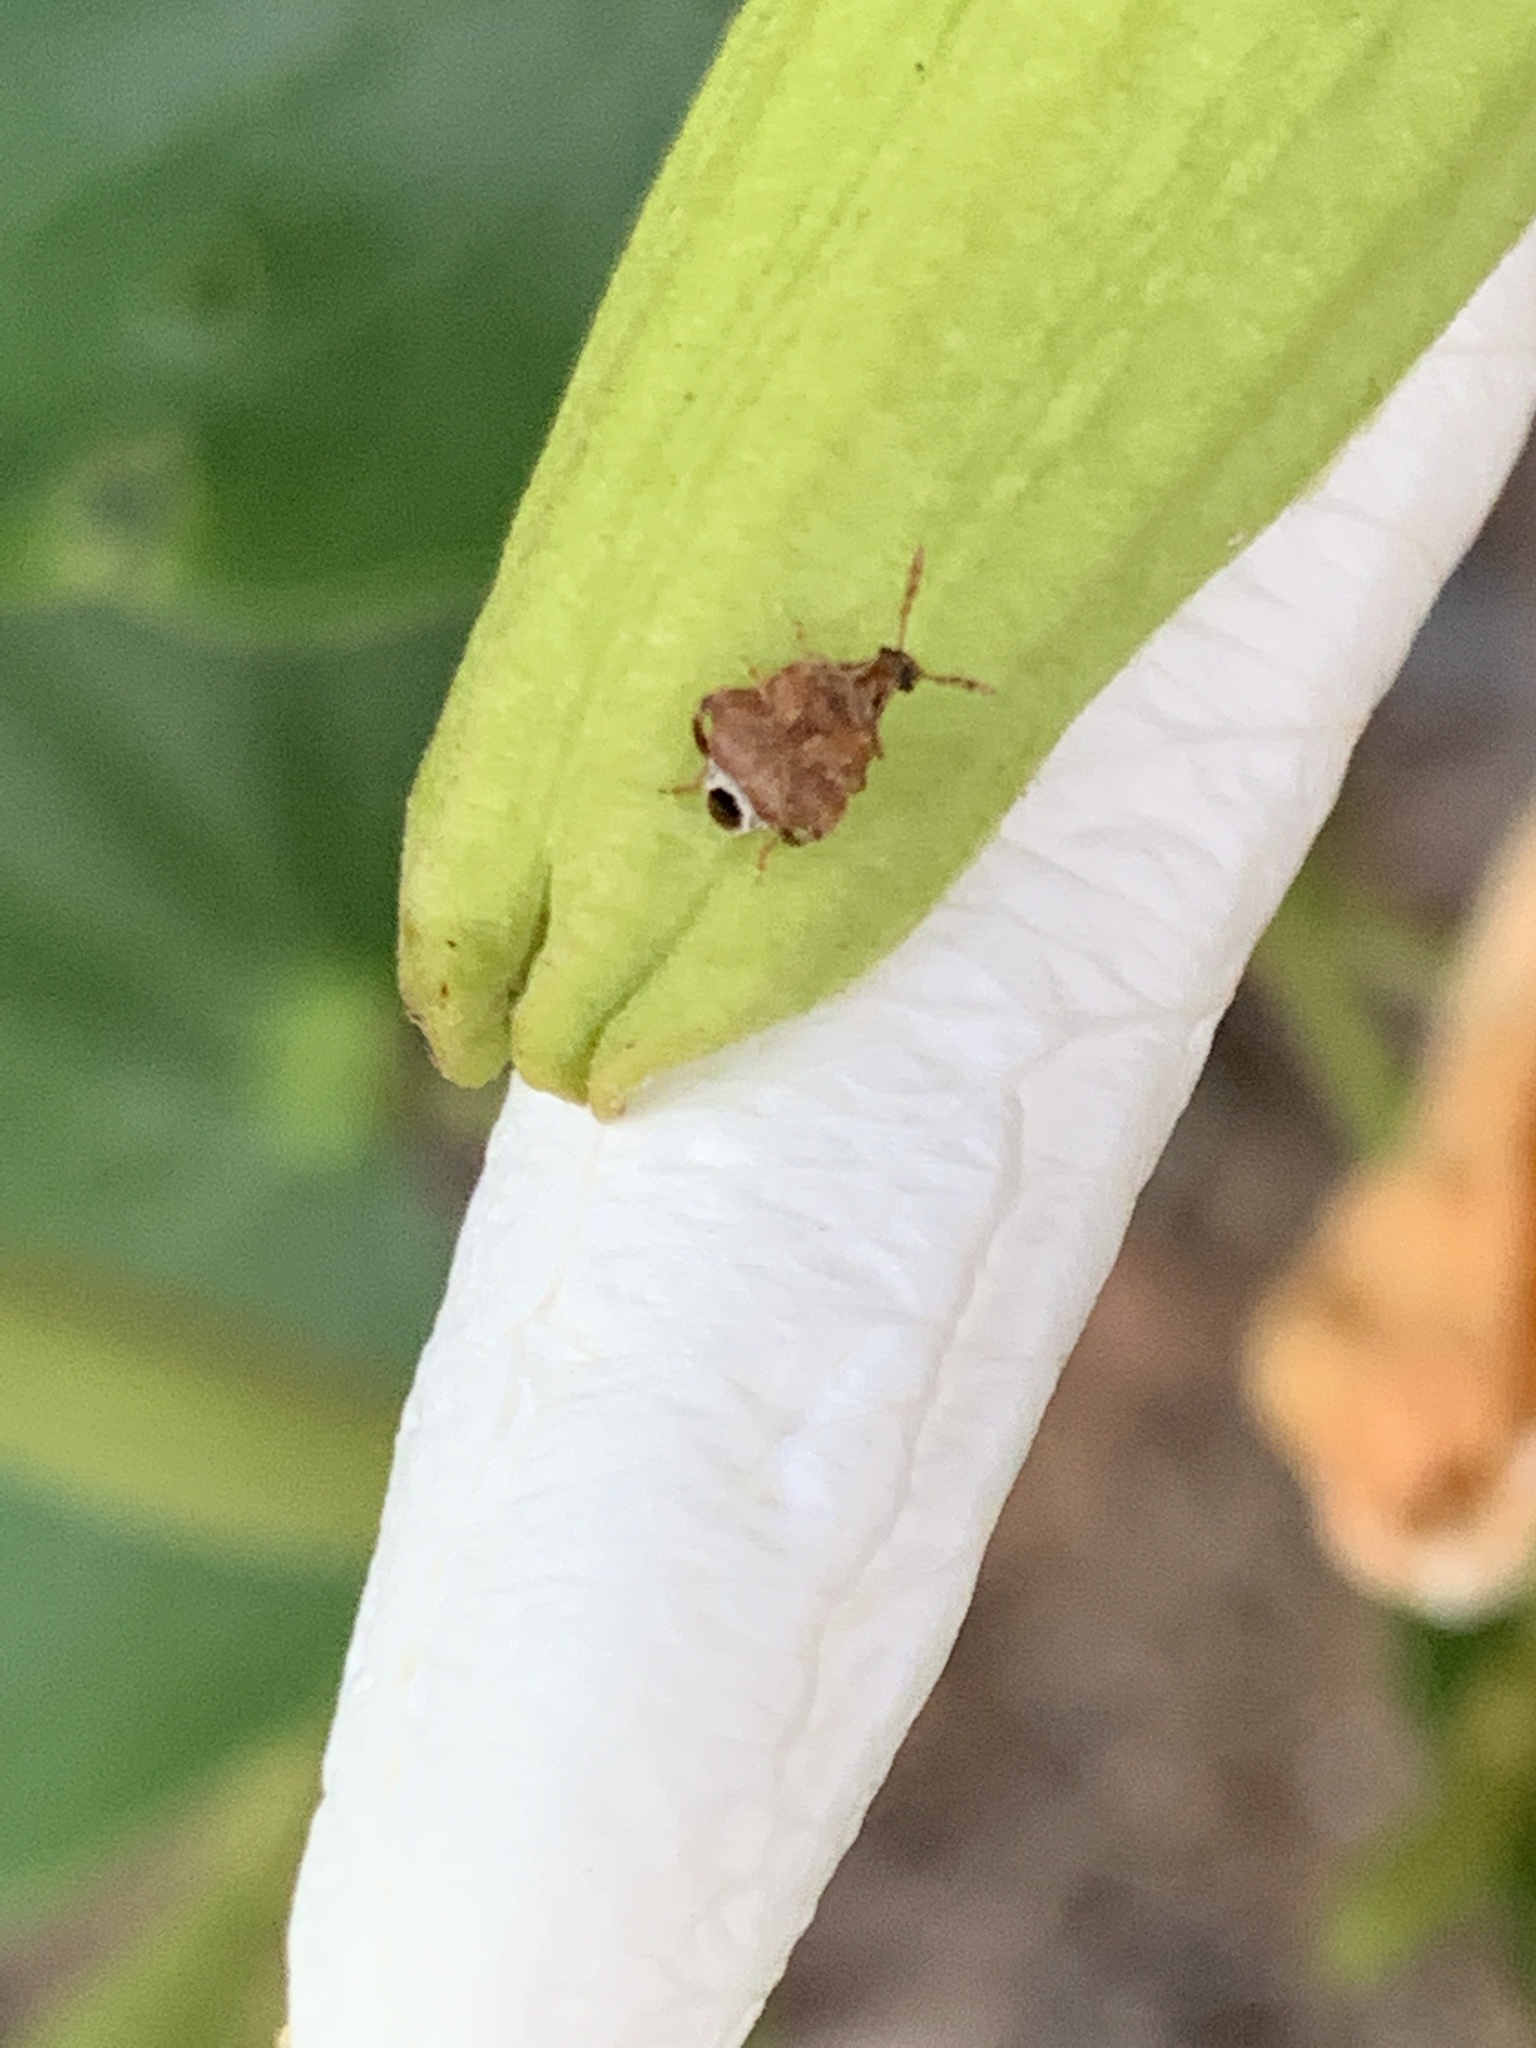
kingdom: Animalia
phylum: Arthropoda
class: Insecta
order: Coleoptera
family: Chrysomelidae
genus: Gibbobruchus
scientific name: Gibbobruchus
